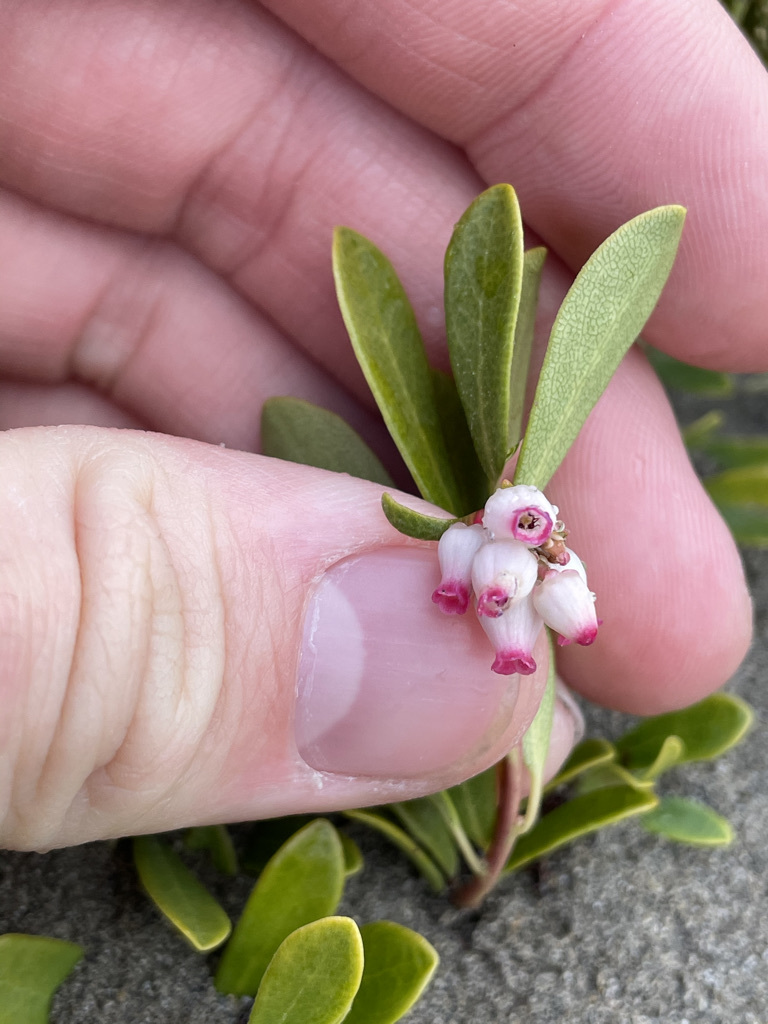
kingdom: Plantae
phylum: Tracheophyta
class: Magnoliopsida
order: Ericales
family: Ericaceae
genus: Arctostaphylos
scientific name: Arctostaphylos uva-ursi
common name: Bearberry
